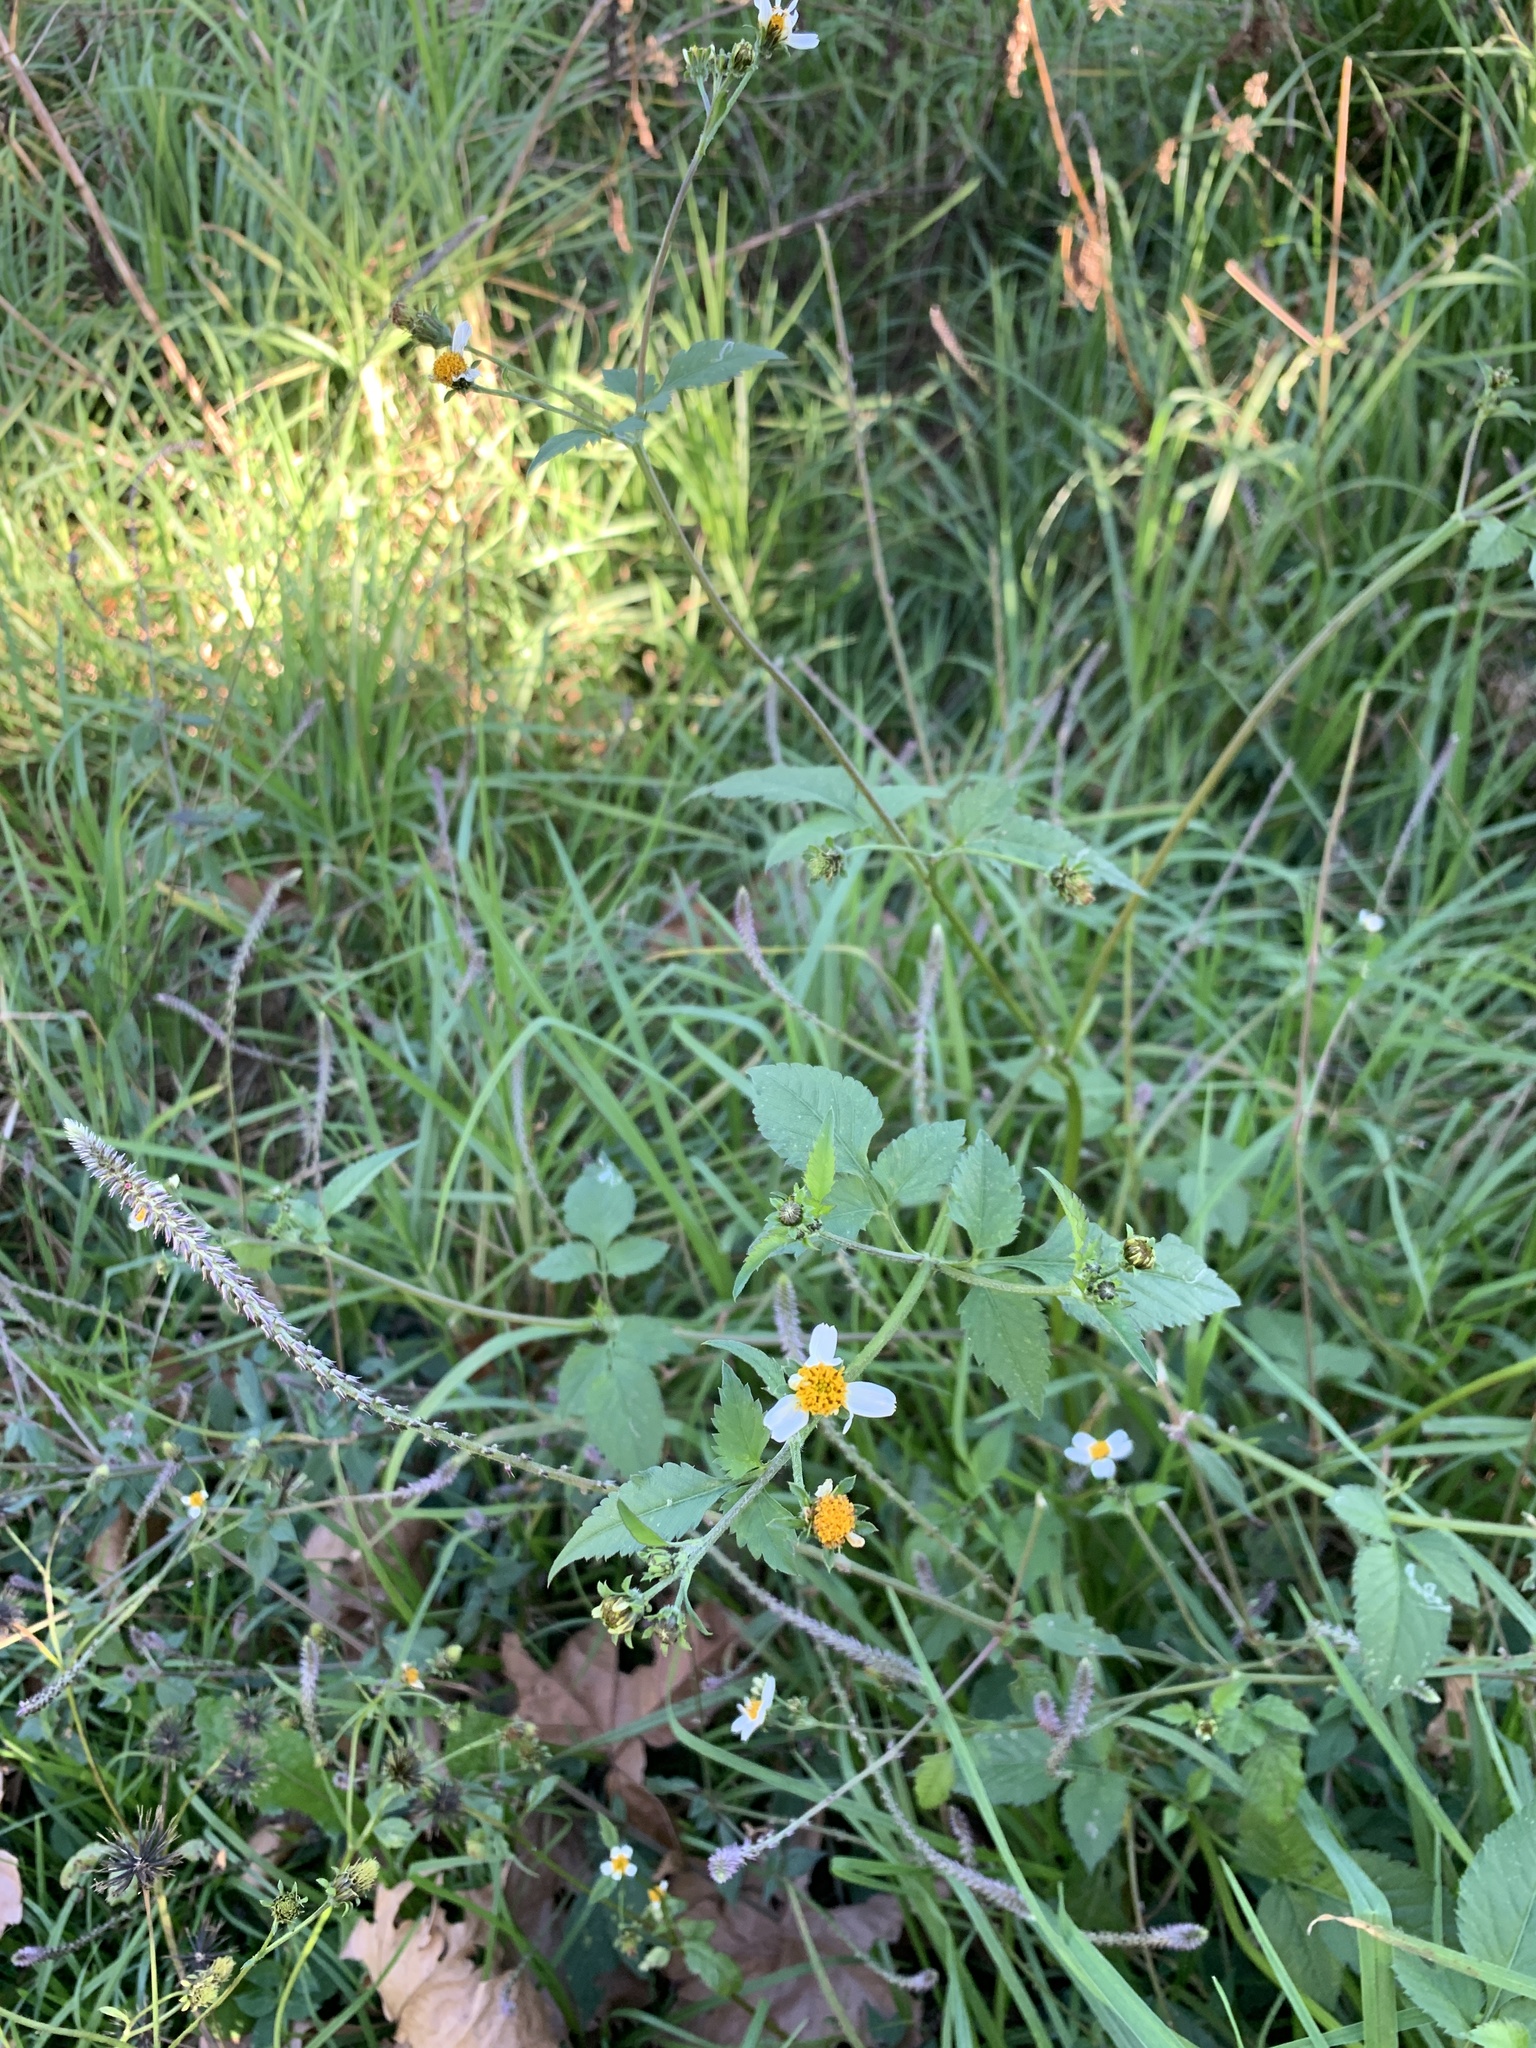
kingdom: Plantae
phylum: Tracheophyta
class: Magnoliopsida
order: Asterales
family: Asteraceae
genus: Bidens
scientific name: Bidens alba
